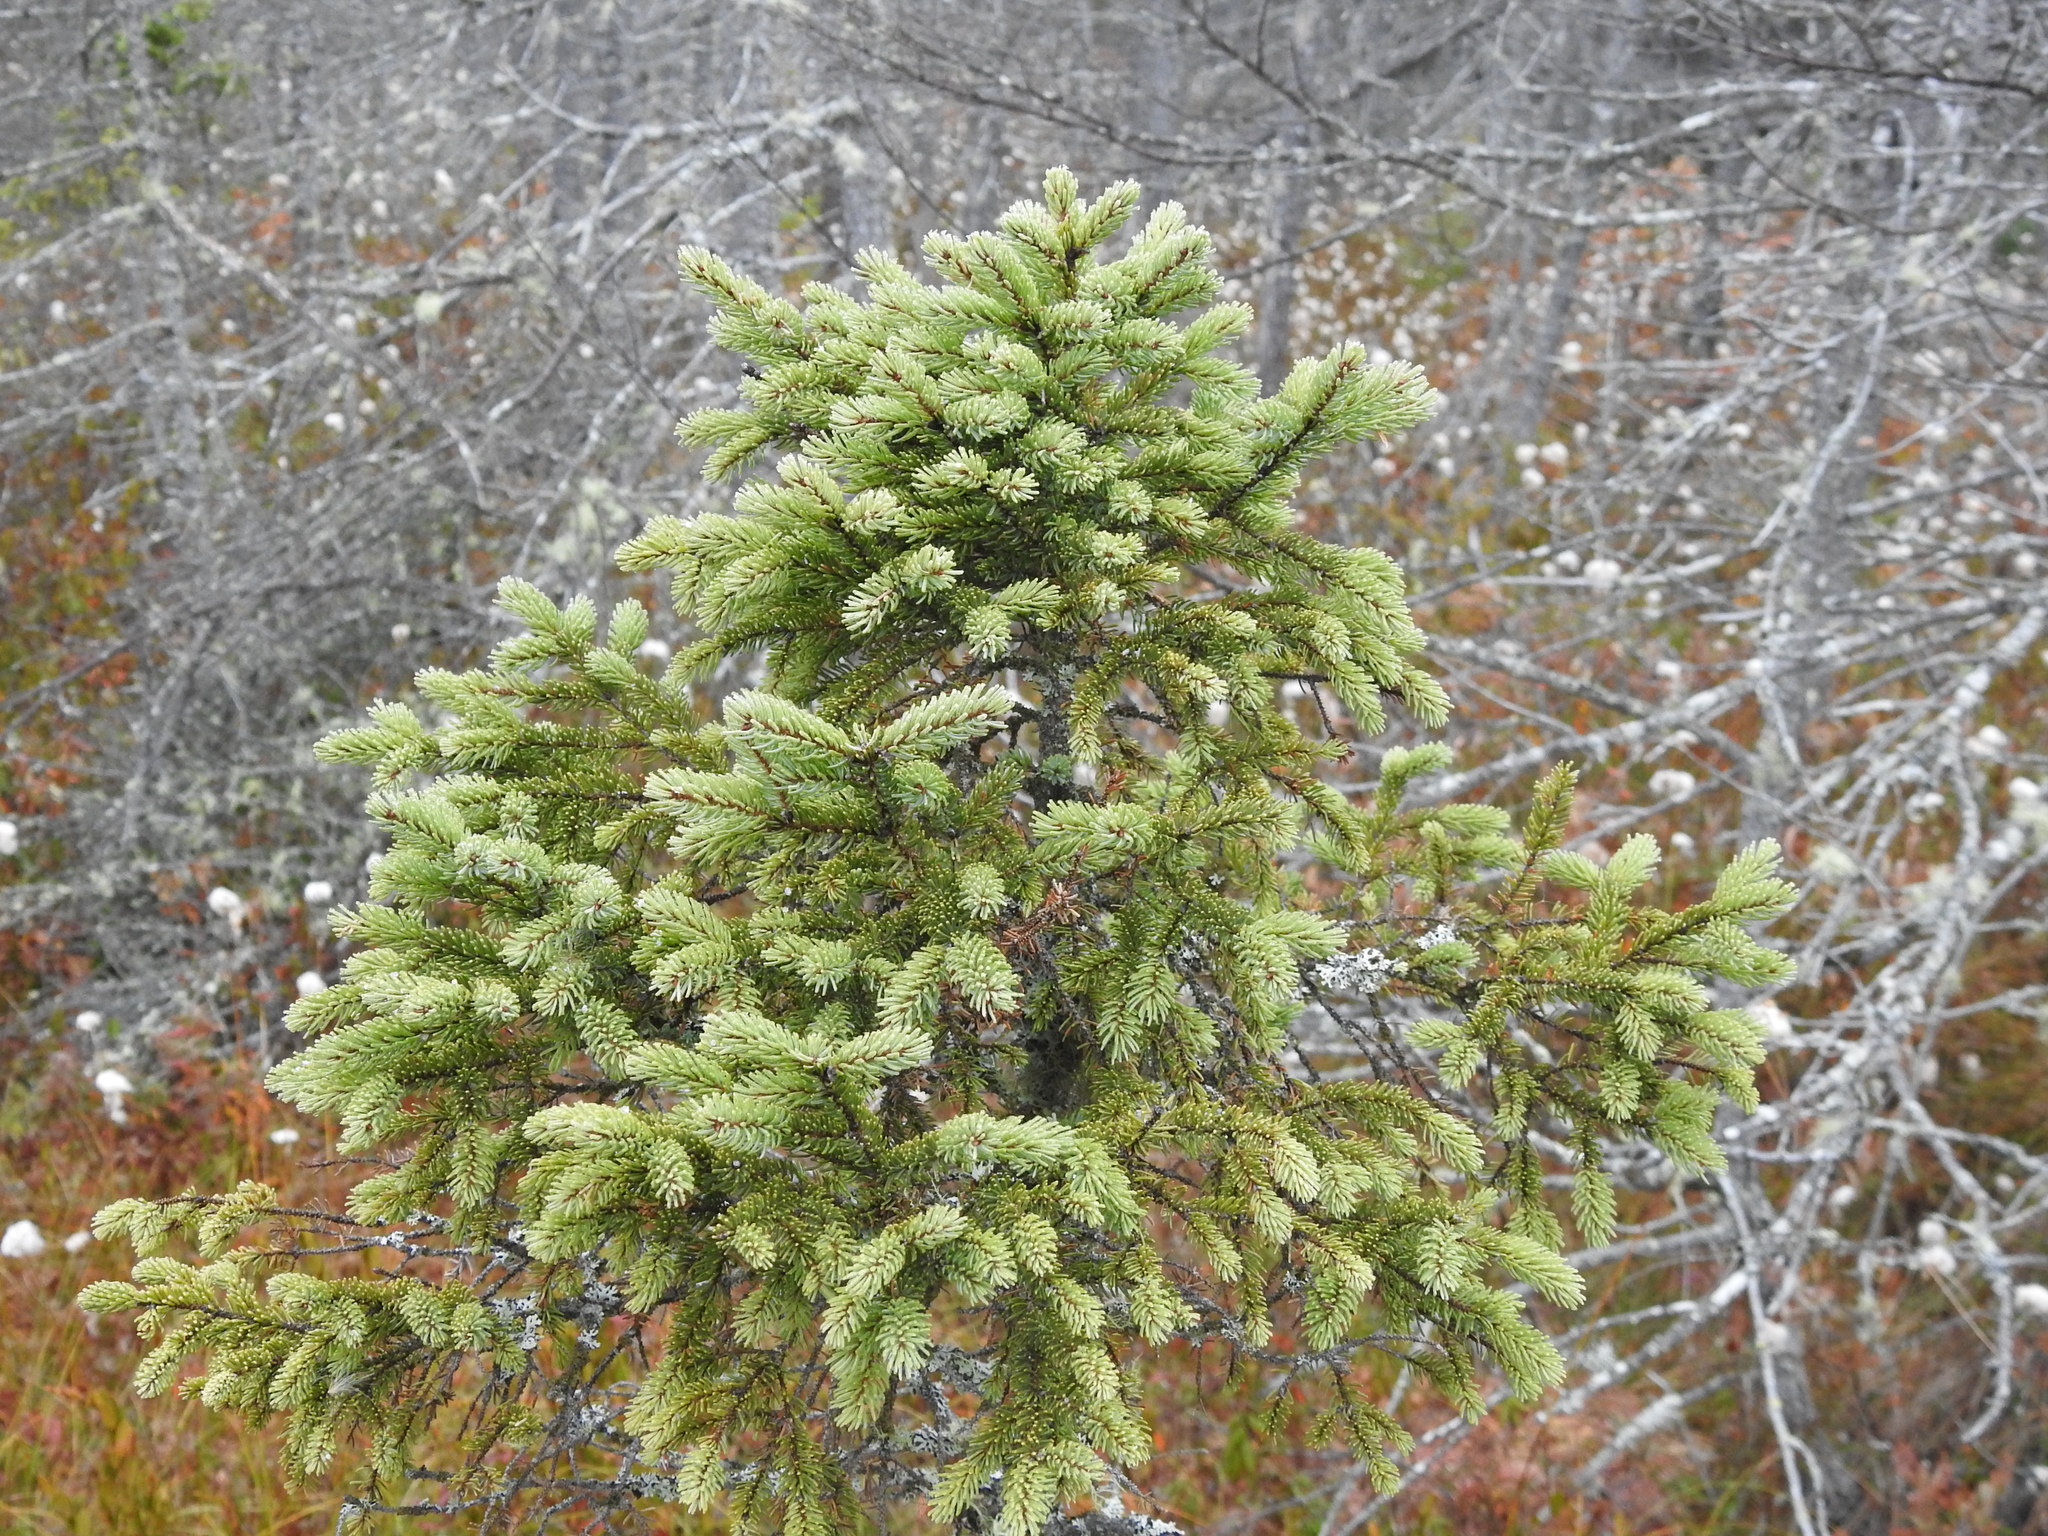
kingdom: Plantae
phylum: Tracheophyta
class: Pinopsida
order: Pinales
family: Pinaceae
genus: Picea
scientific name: Picea mariana
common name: Black spruce
